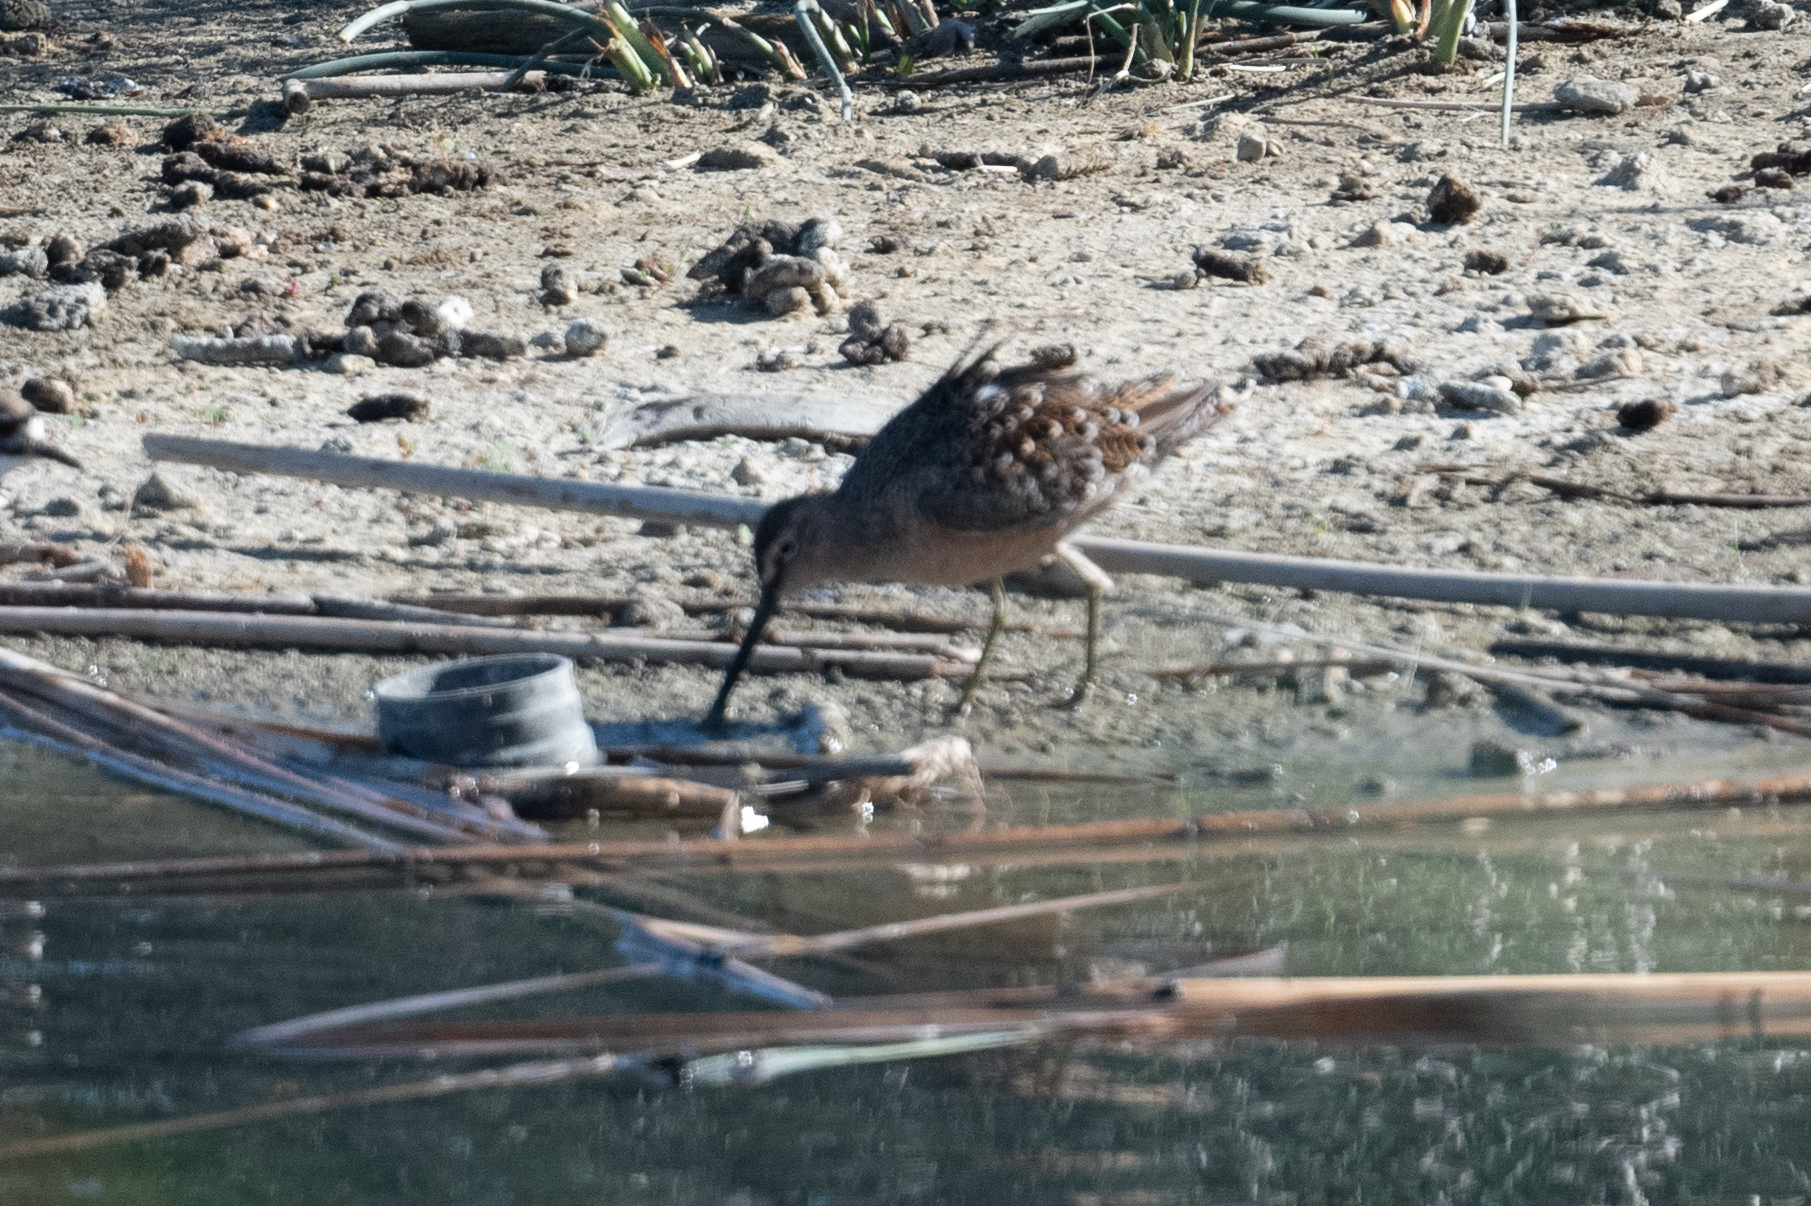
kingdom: Animalia
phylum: Chordata
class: Aves
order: Charadriiformes
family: Scolopacidae
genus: Limnodromus
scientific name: Limnodromus scolopaceus
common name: Long-billed dowitcher
